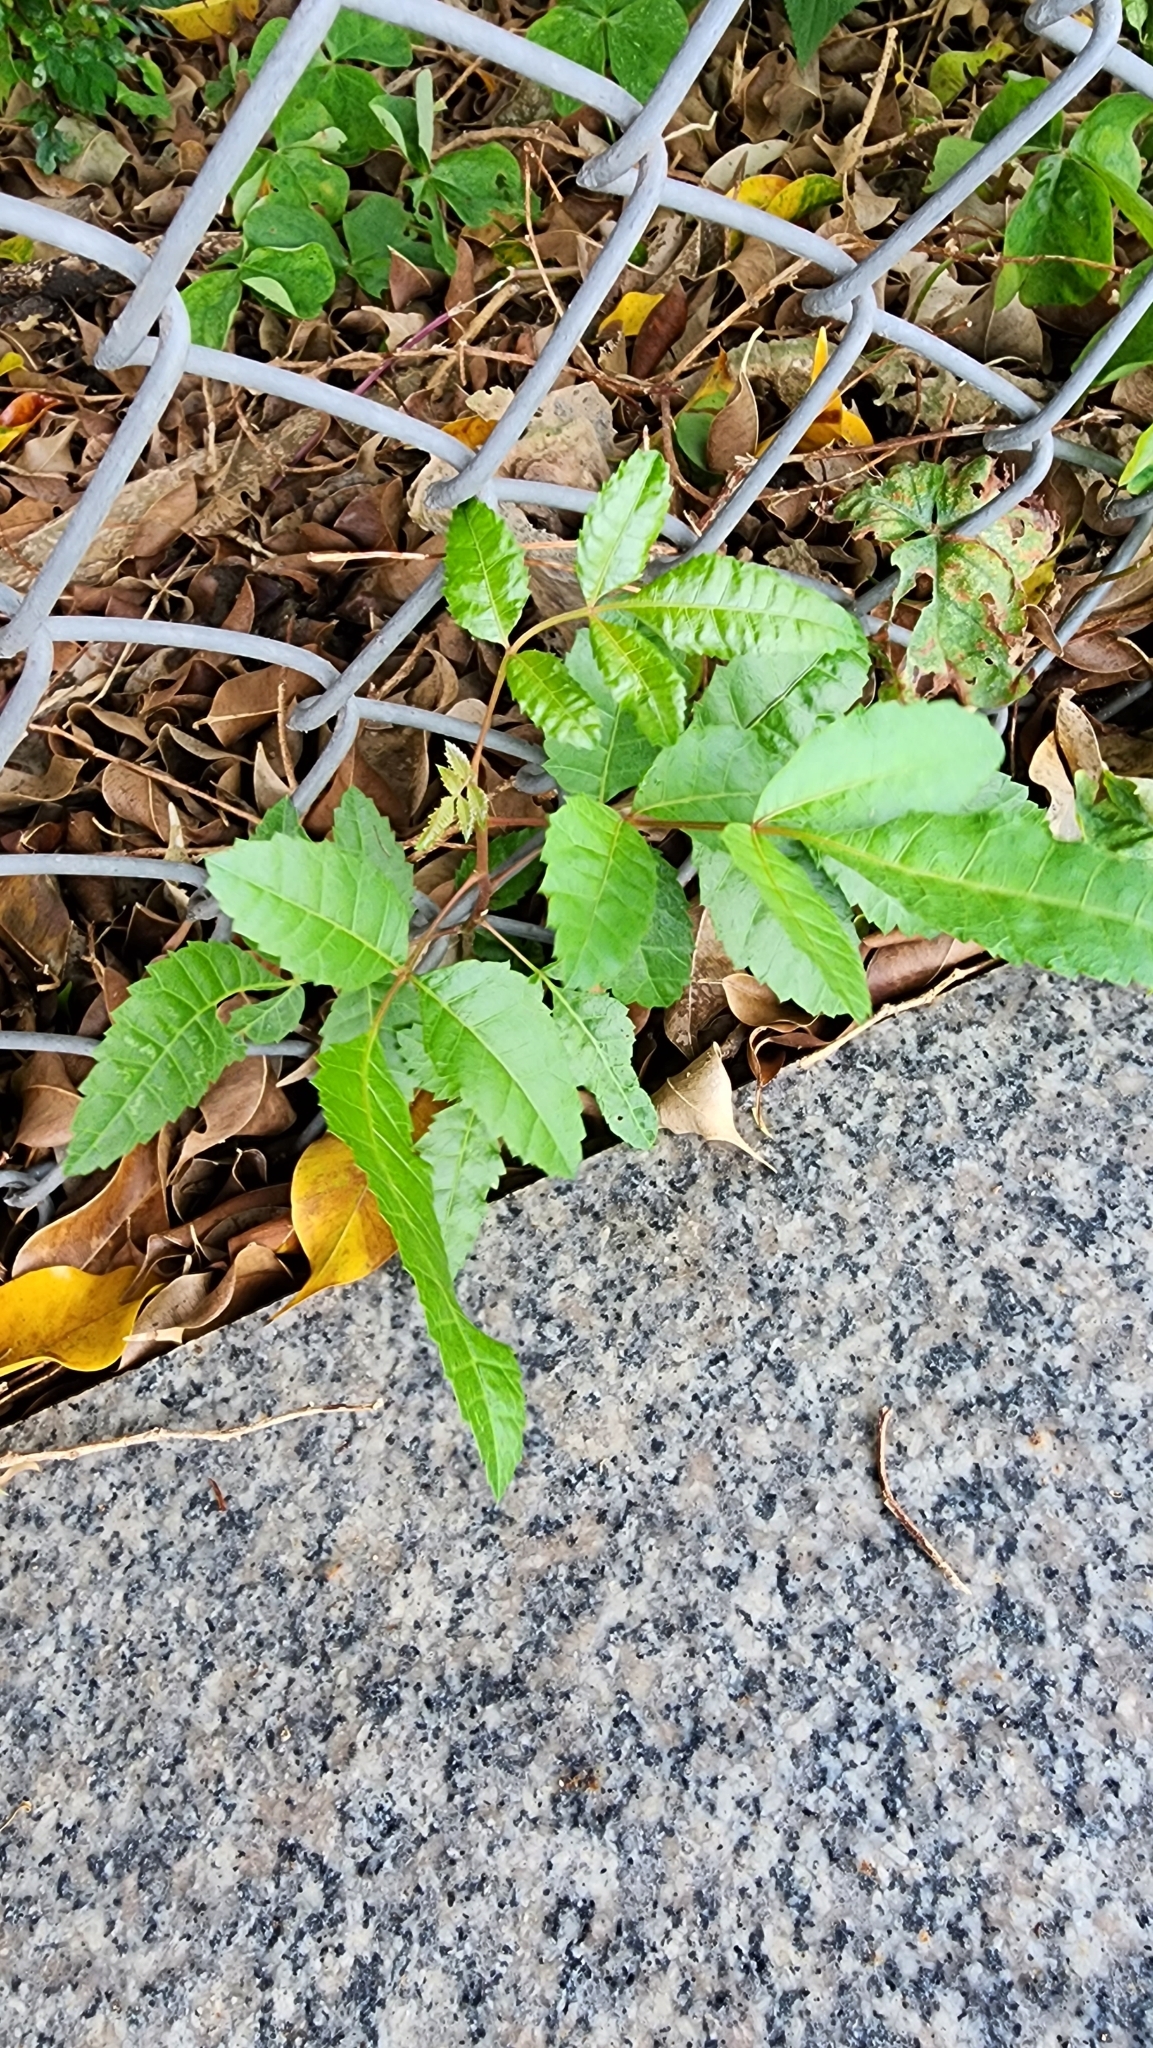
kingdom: Plantae
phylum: Tracheophyta
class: Magnoliopsida
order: Sapindales
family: Anacardiaceae
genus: Schinus
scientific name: Schinus terebinthifolia
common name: Brazilian peppertree
